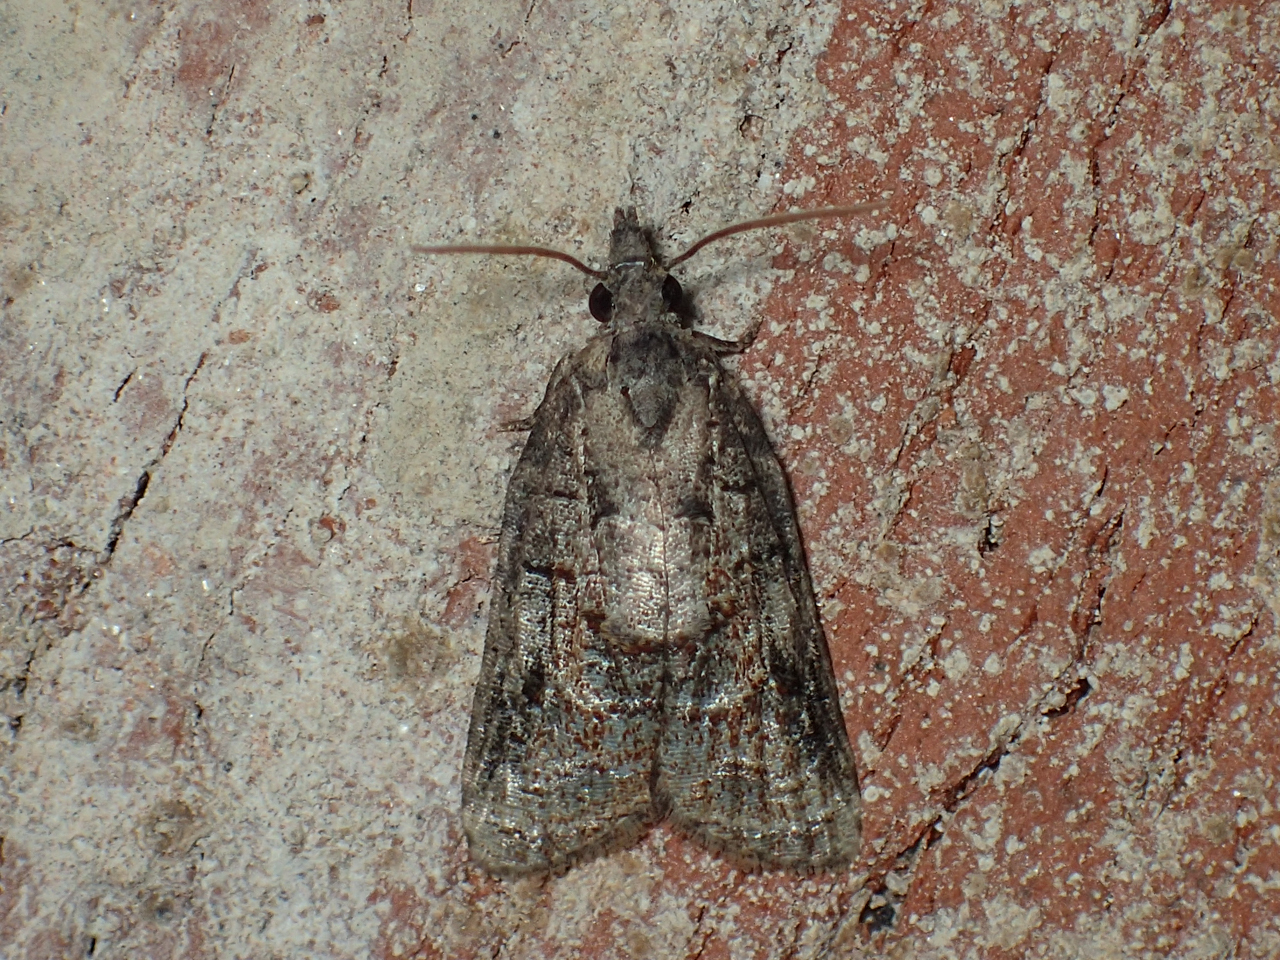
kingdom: Animalia
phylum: Arthropoda
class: Insecta
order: Lepidoptera
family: Tortricidae
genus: Platynota
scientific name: Platynota idaeusalis
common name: Tufted apple bud moth
